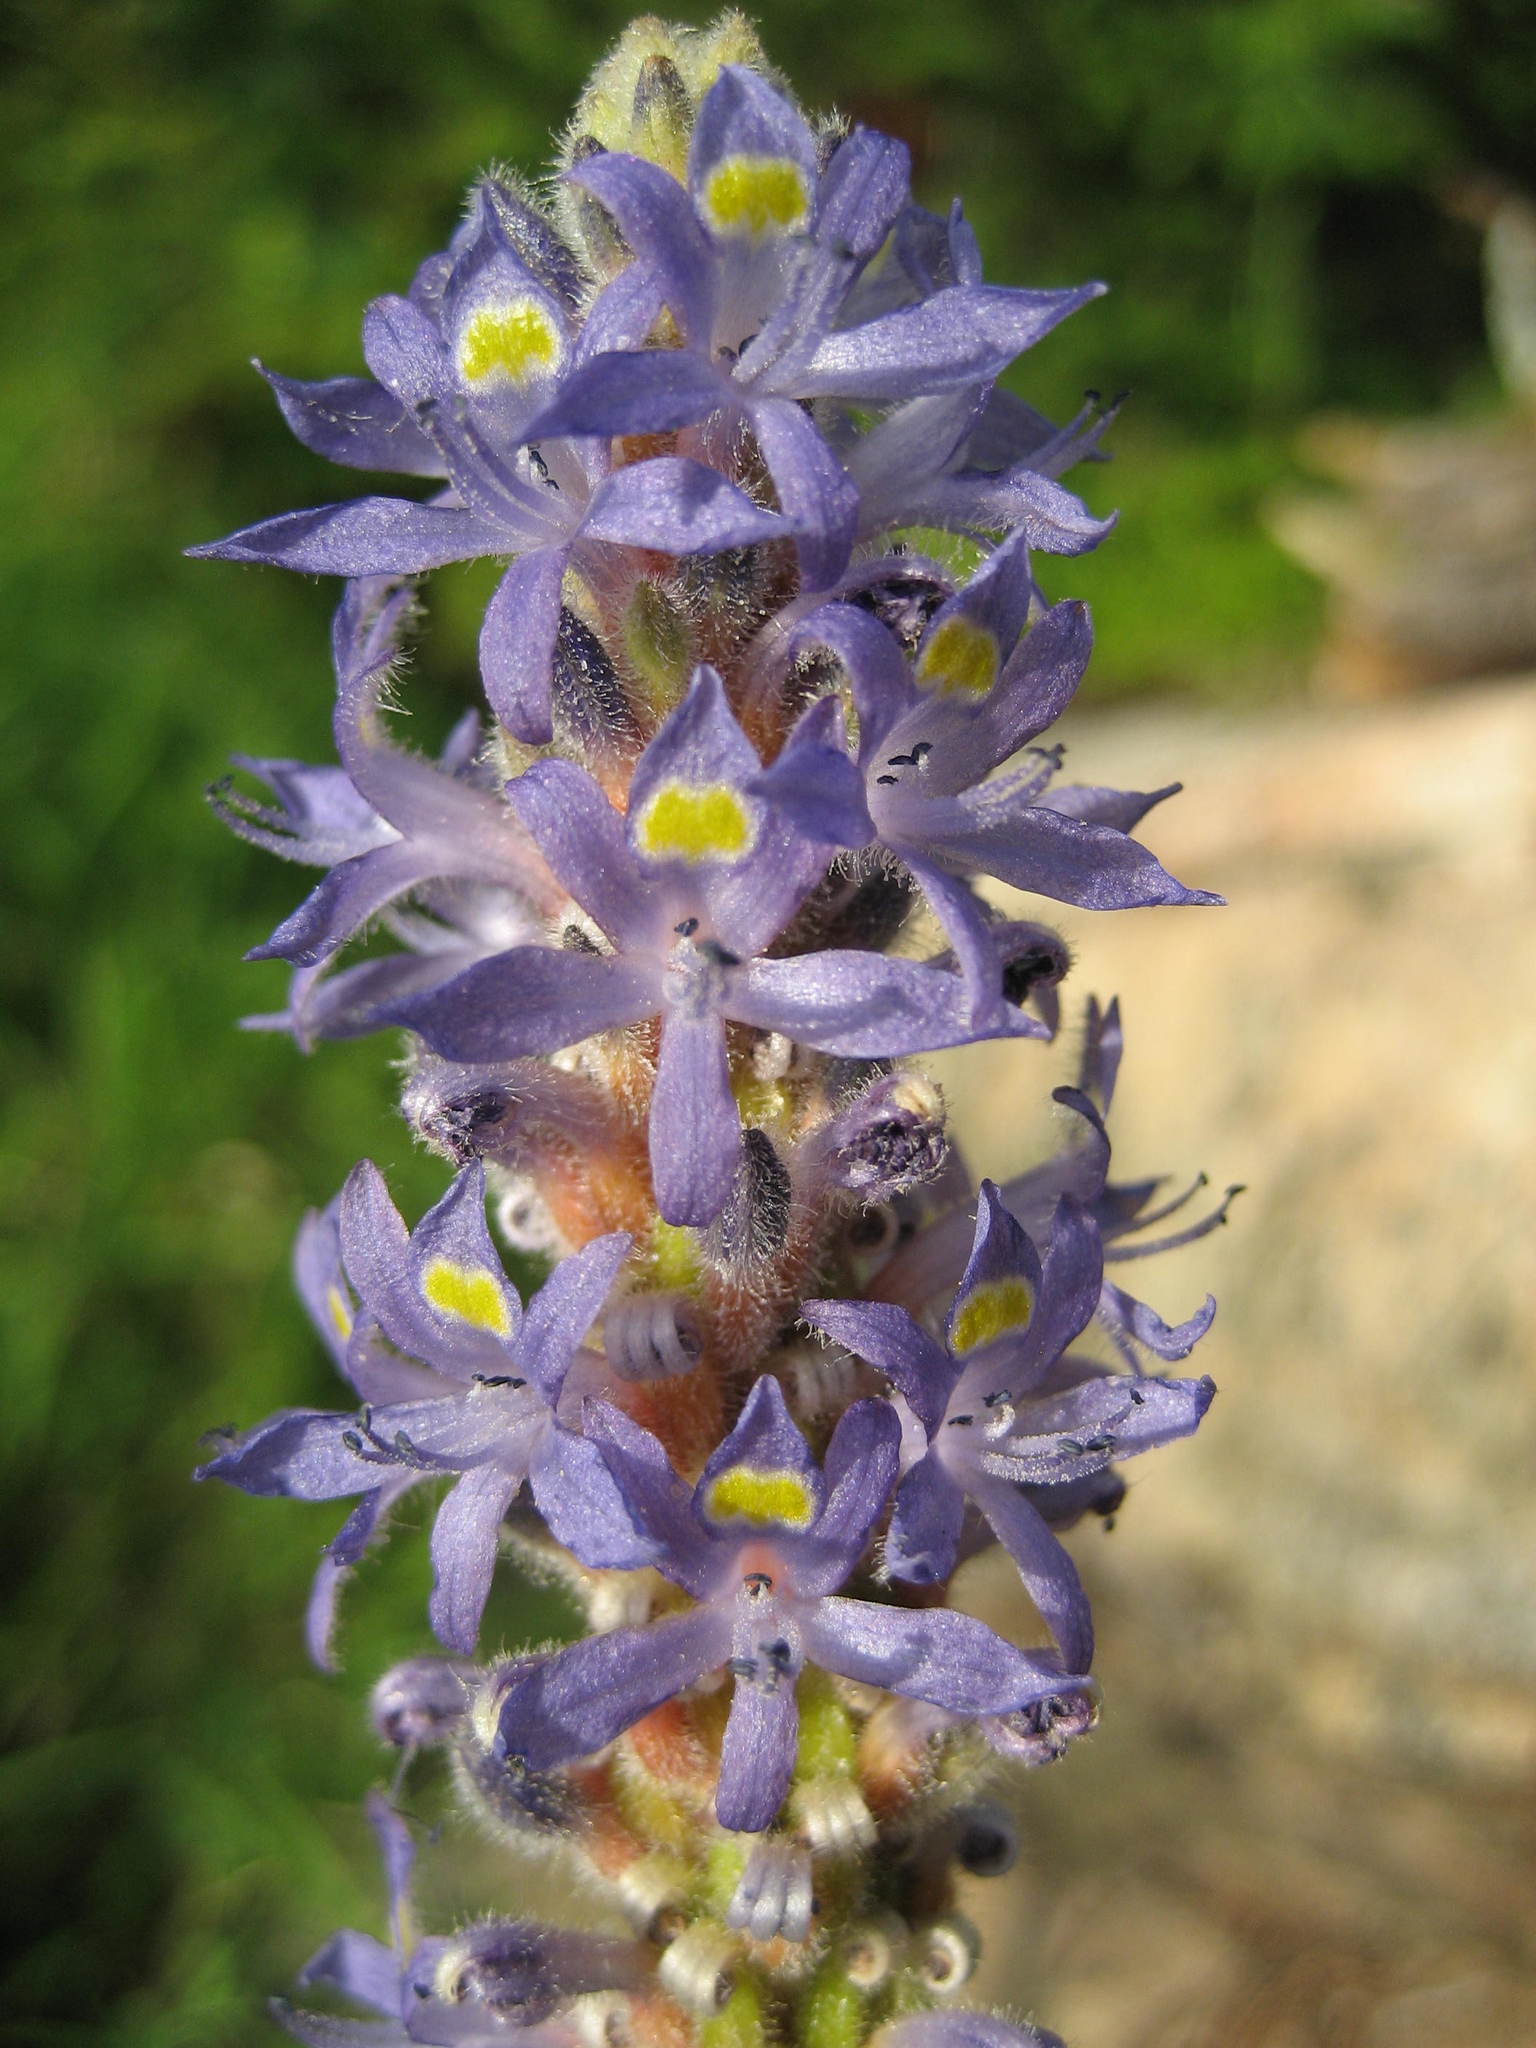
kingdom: Plantae
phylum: Tracheophyta
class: Liliopsida
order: Commelinales
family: Pontederiaceae
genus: Pontederia
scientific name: Pontederia cordata
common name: Pickerelweed
